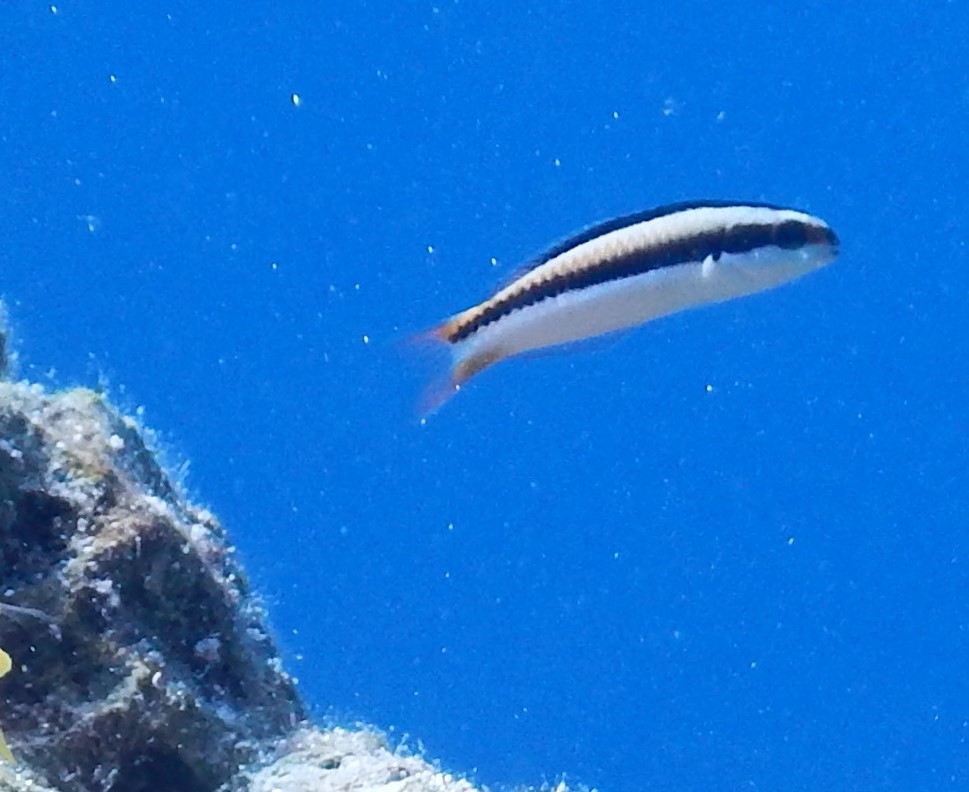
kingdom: Animalia
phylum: Chordata
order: Perciformes
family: Labridae
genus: Thalassoma
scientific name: Thalassoma amblycephalum
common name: Bluehead wrasse
